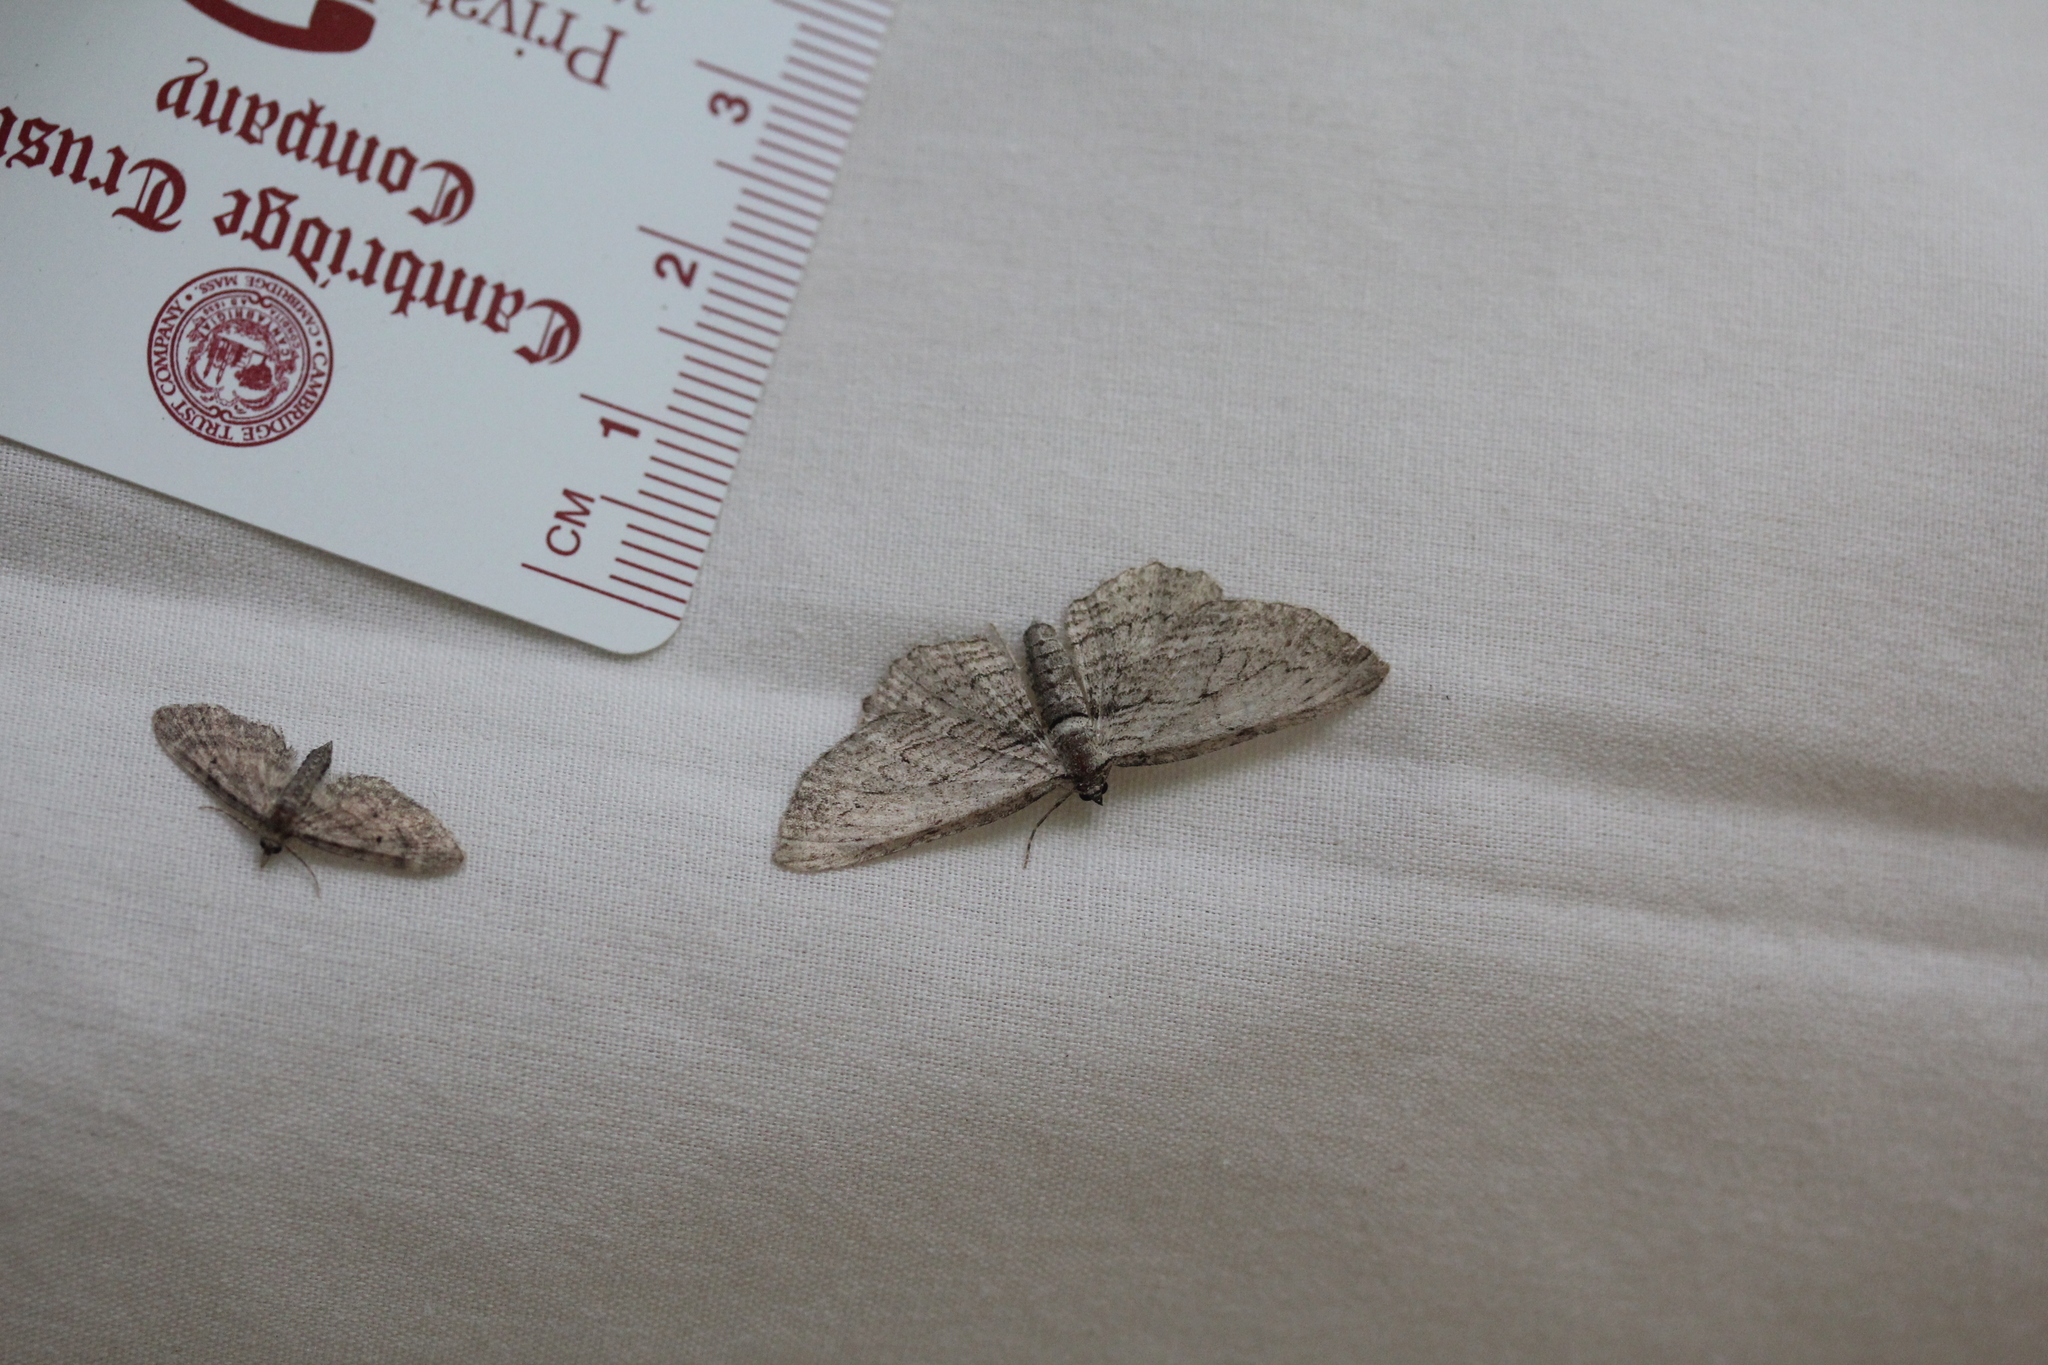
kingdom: Animalia
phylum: Arthropoda
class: Insecta
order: Lepidoptera
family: Geometridae
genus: Horisme
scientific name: Horisme intestinata
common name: Brown bark carpet
